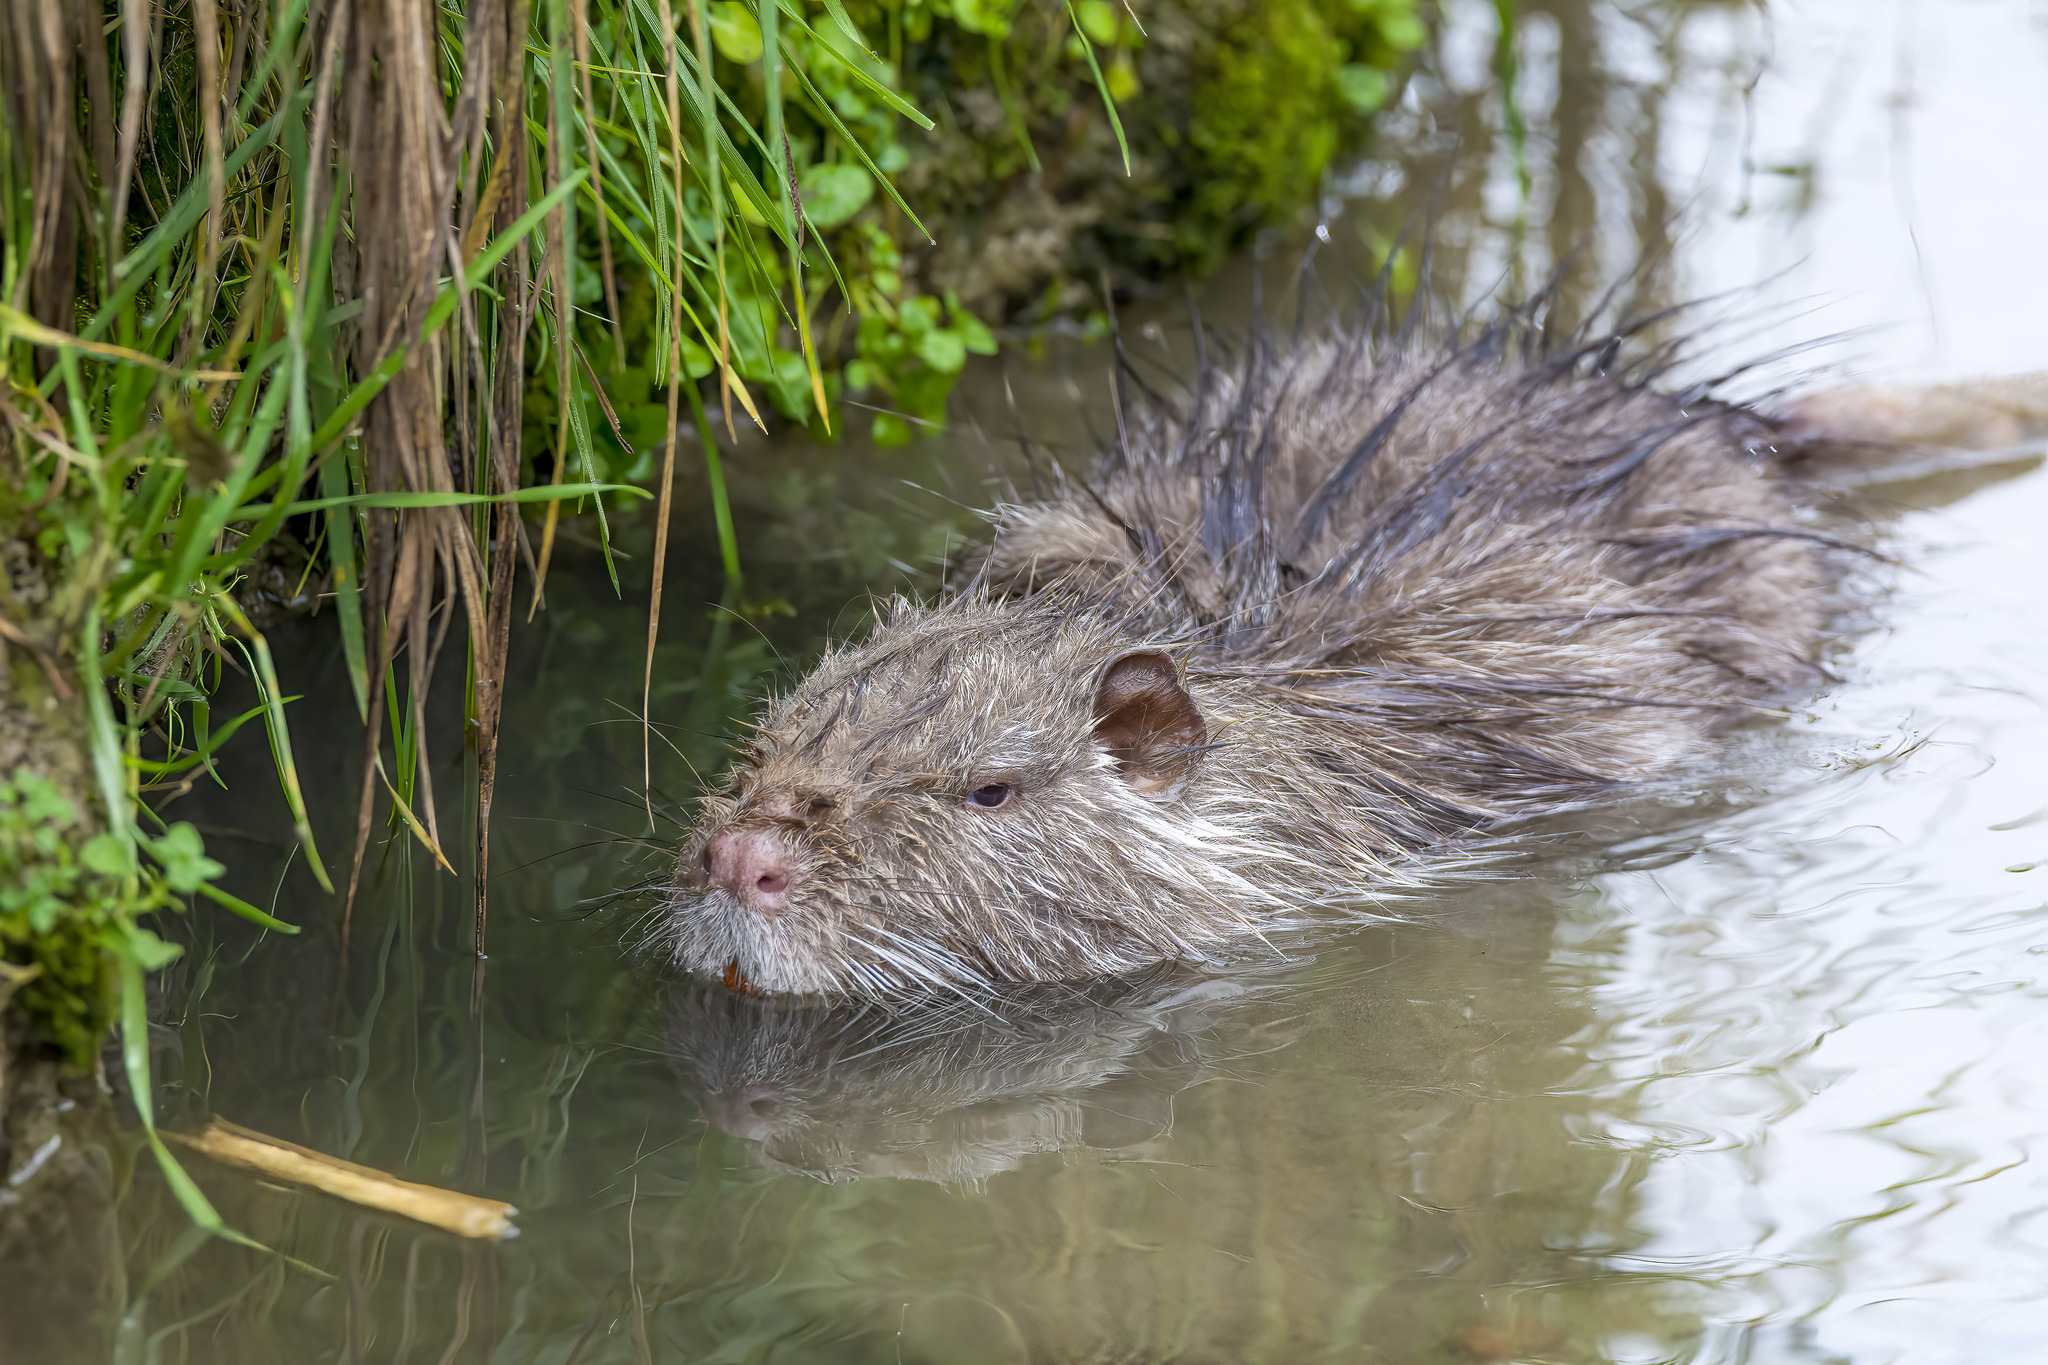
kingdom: Animalia
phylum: Chordata
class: Mammalia
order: Rodentia
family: Myocastoridae
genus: Myocastor
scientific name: Myocastor coypus
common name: Coypu
